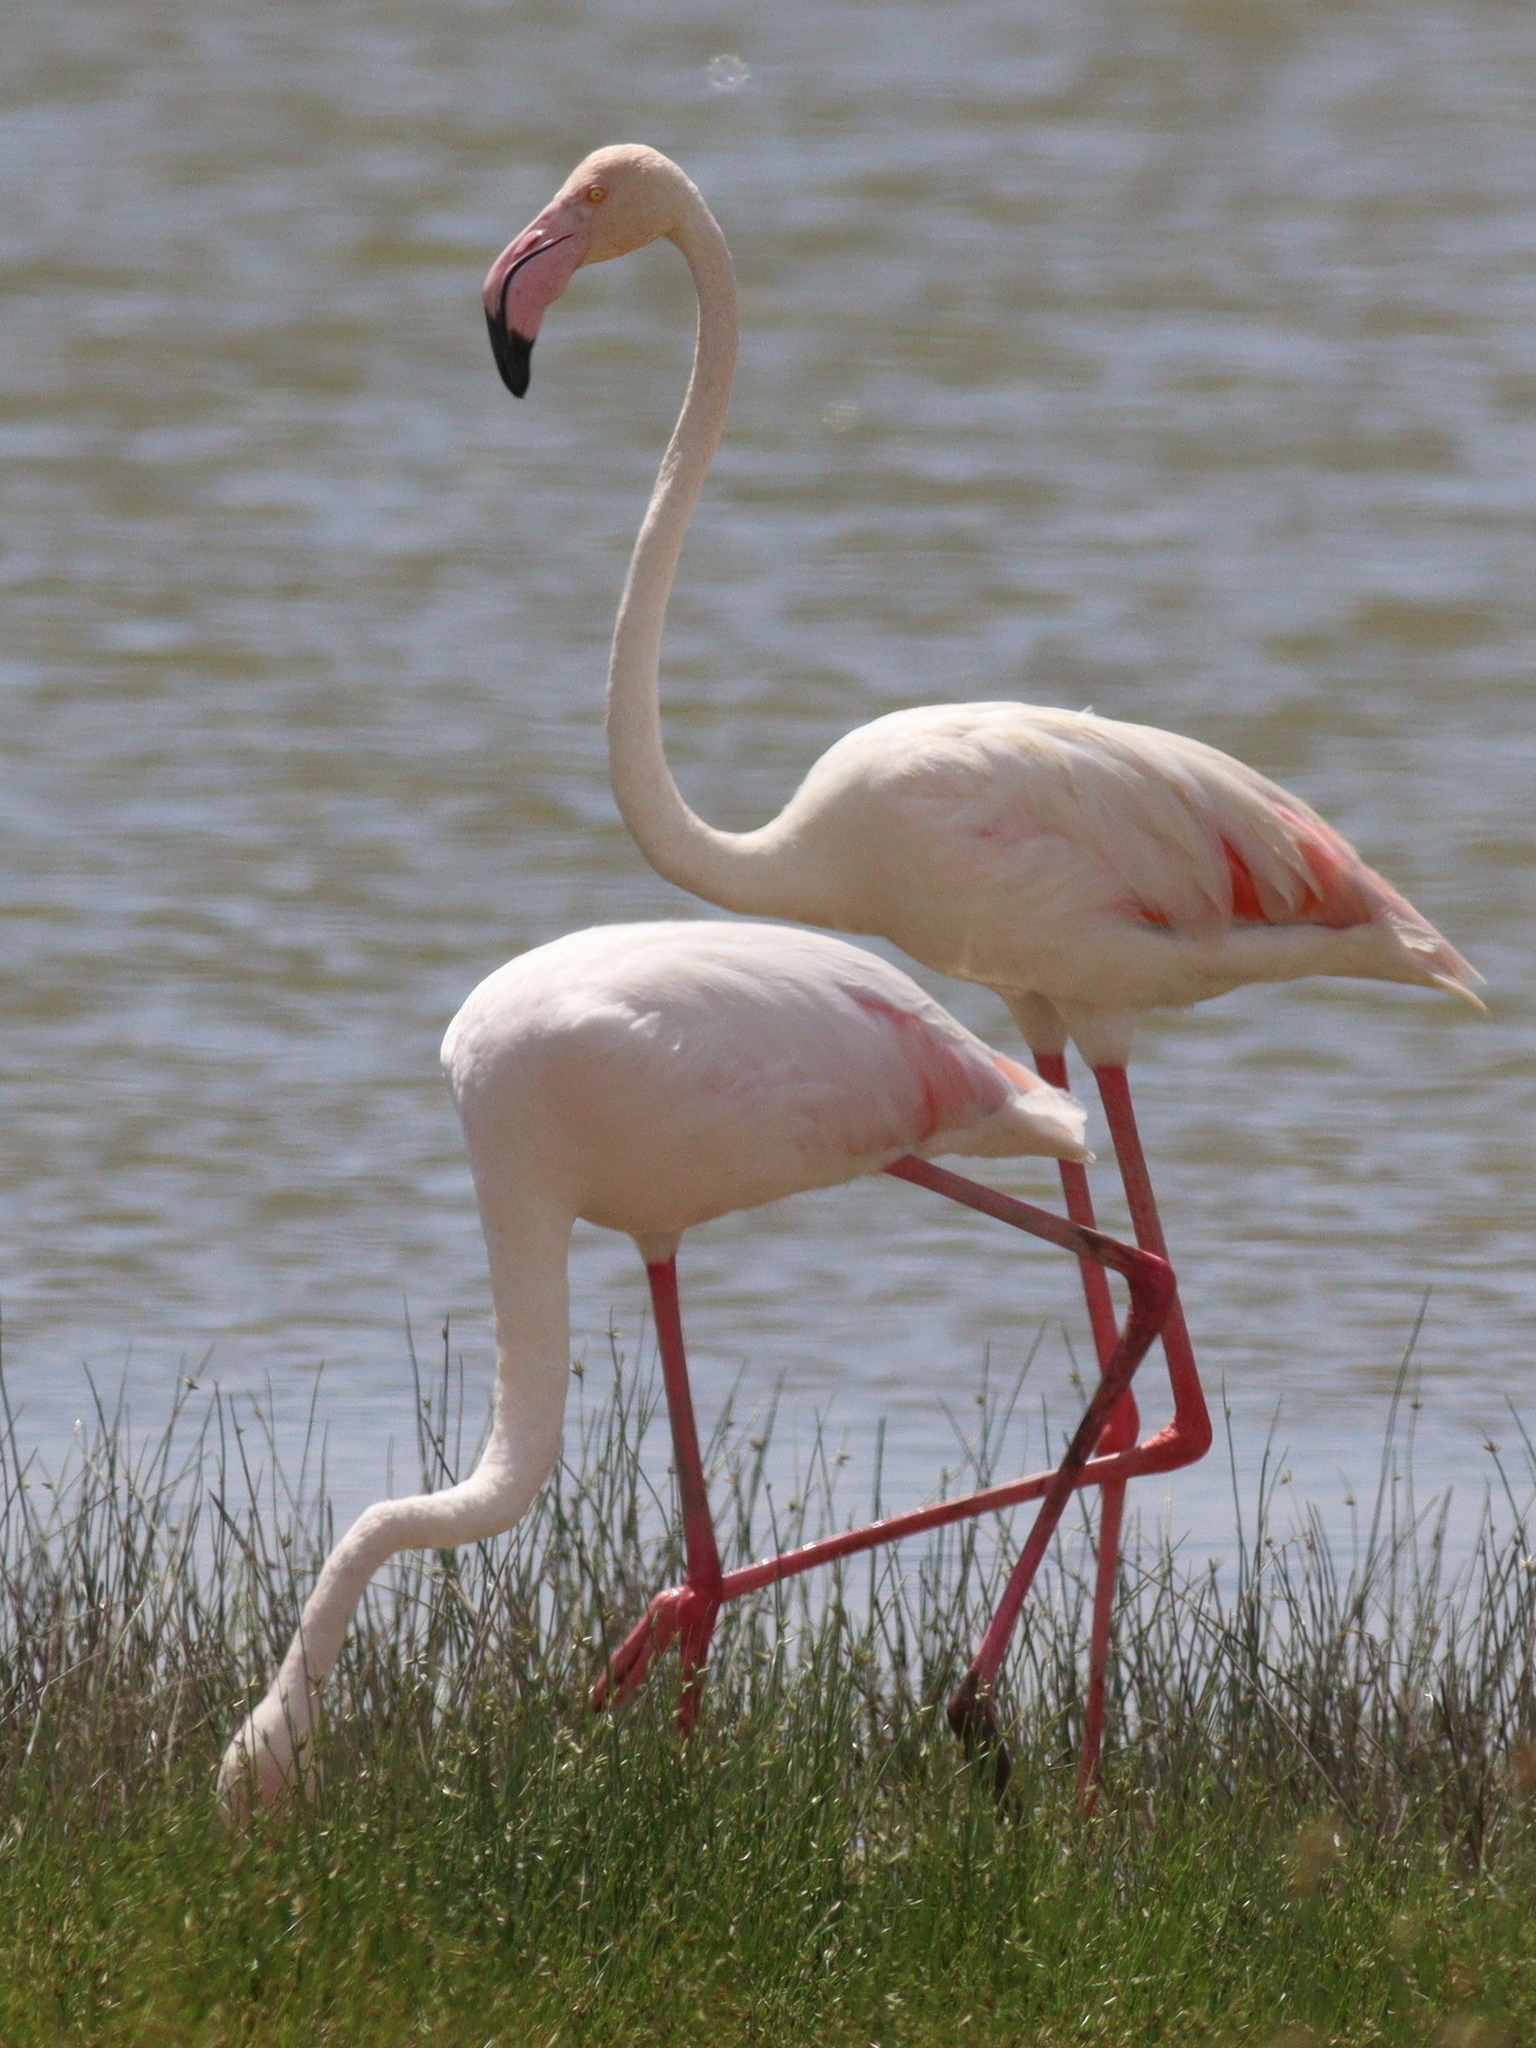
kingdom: Animalia
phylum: Chordata
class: Aves
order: Phoenicopteriformes
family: Phoenicopteridae
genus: Phoenicopterus
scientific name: Phoenicopterus roseus
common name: Greater flamingo
